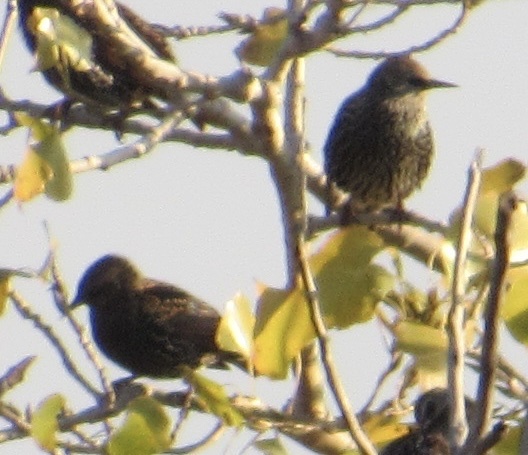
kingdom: Animalia
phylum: Chordata
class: Aves
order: Passeriformes
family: Sturnidae
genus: Sturnus
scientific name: Sturnus vulgaris
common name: Common starling
